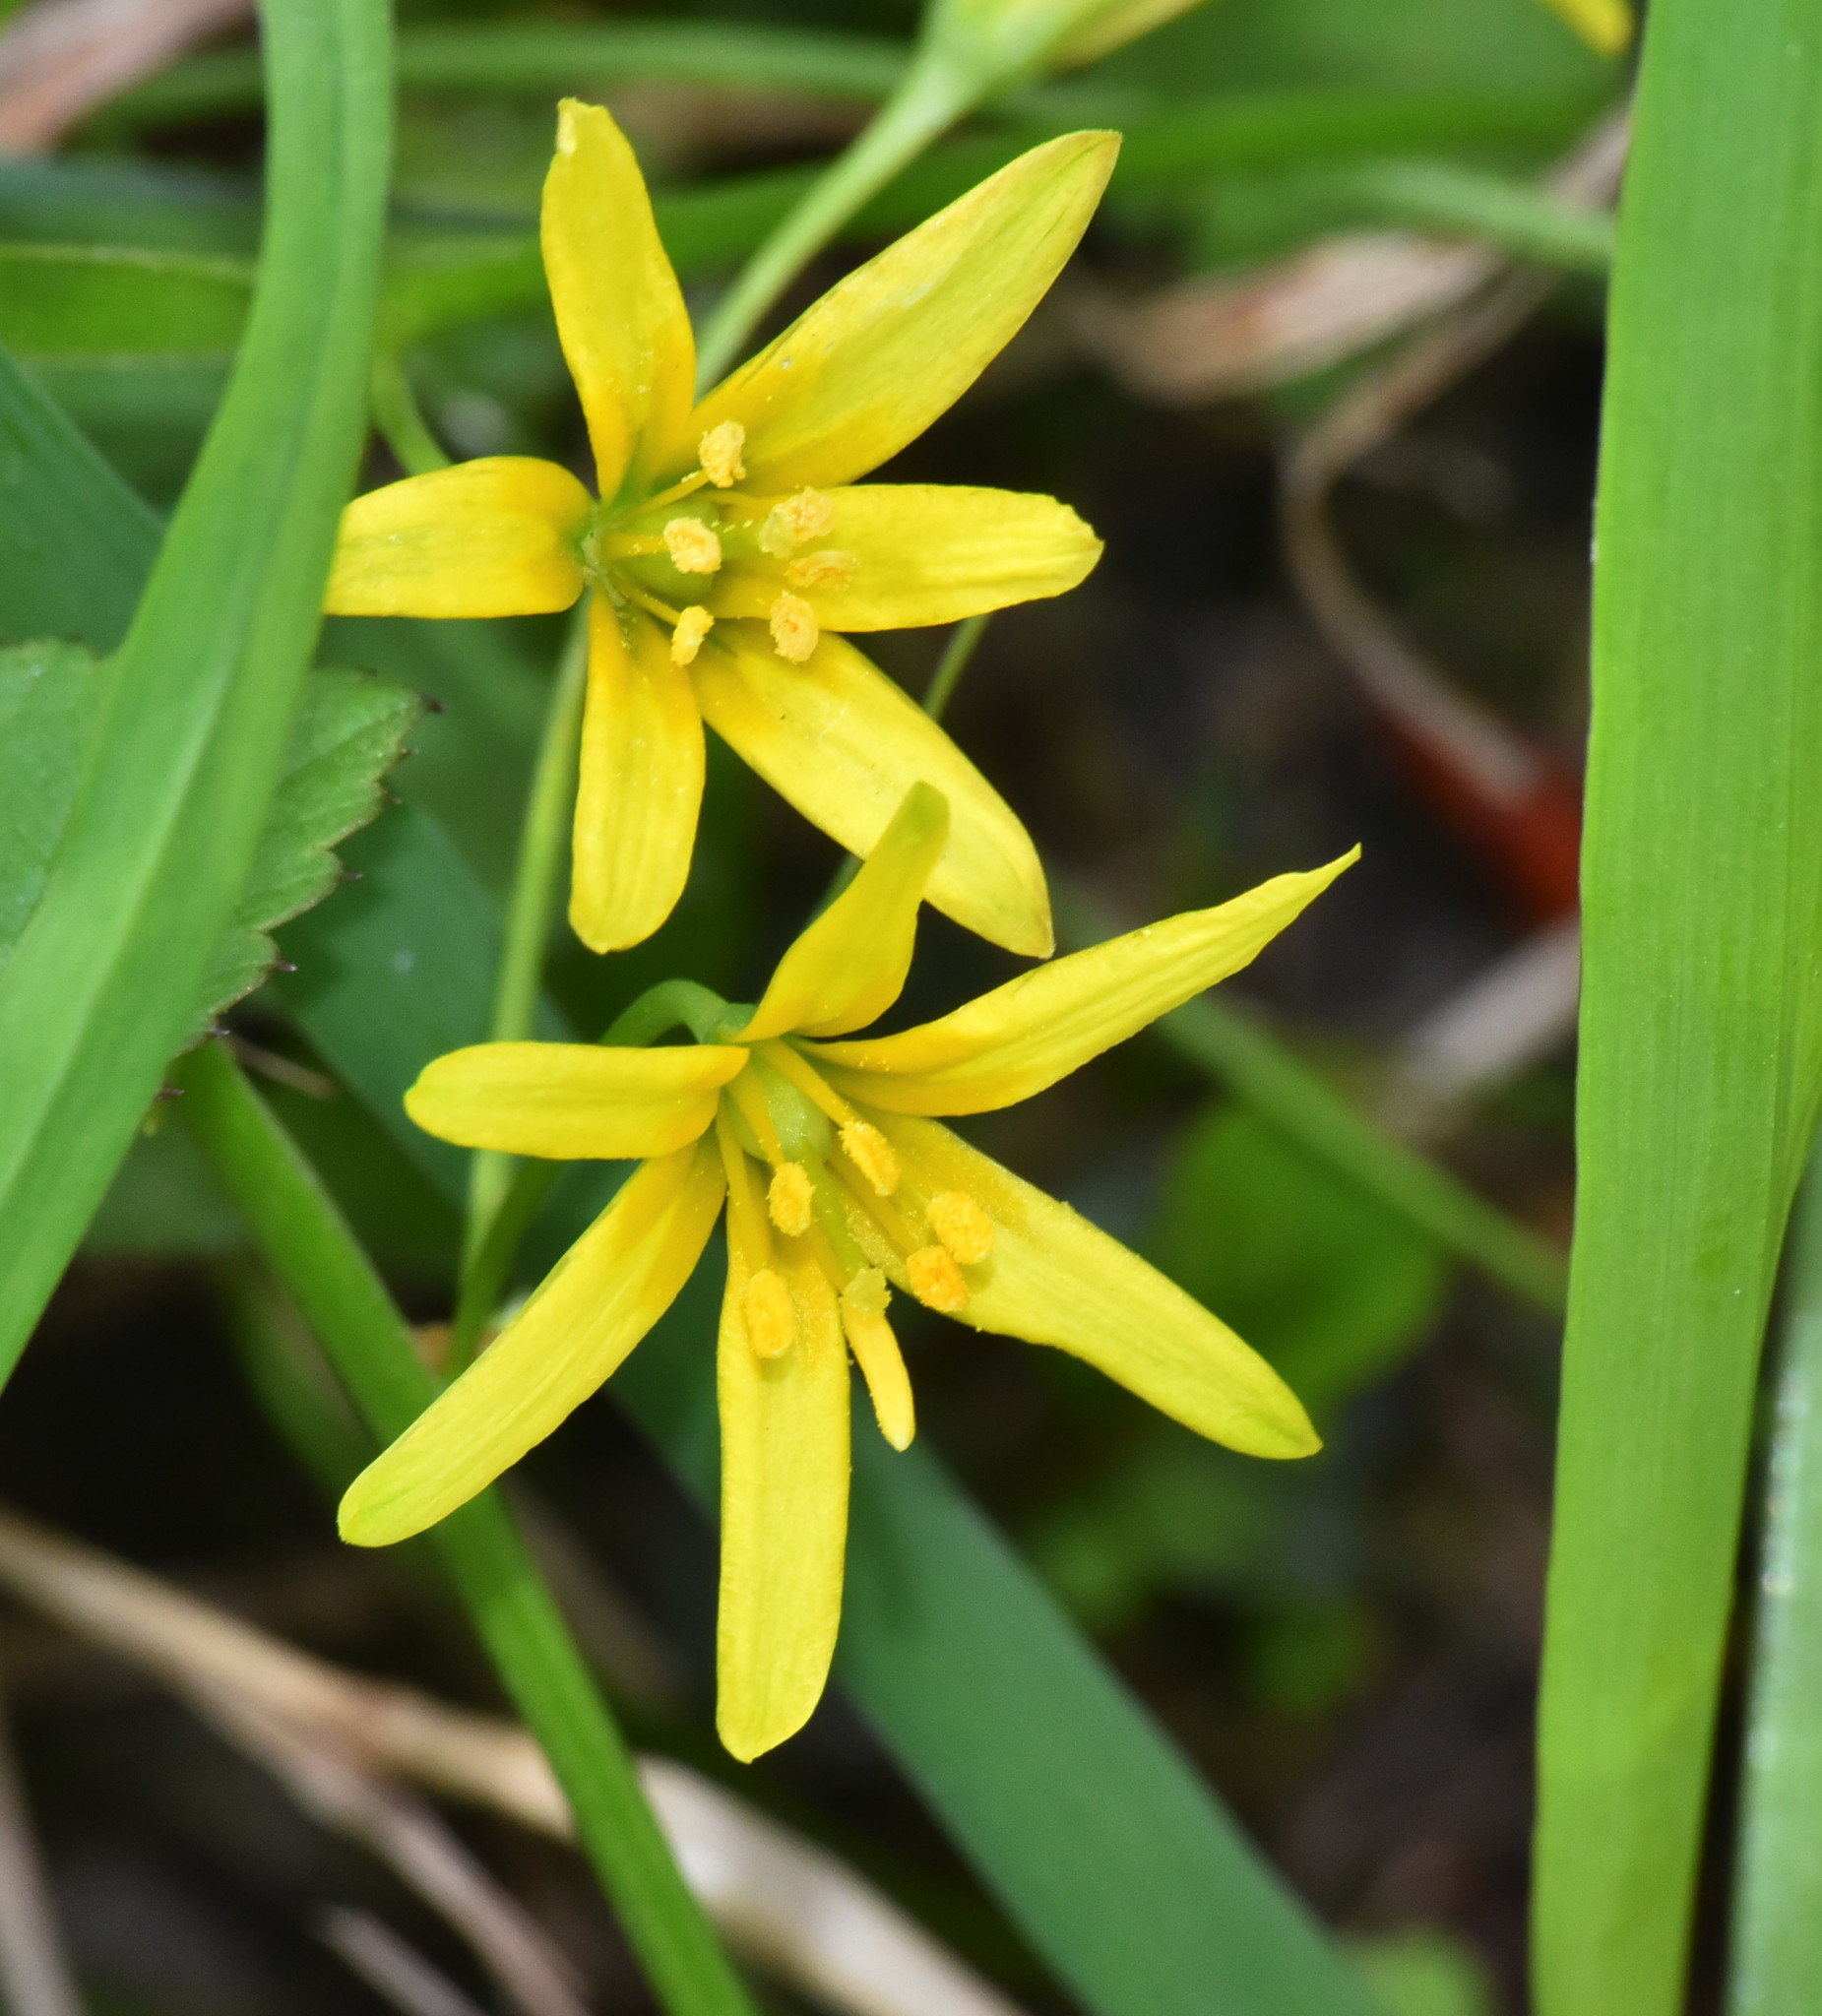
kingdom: Plantae
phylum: Tracheophyta
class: Liliopsida
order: Liliales
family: Liliaceae
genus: Gagea
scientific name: Gagea lutea
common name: Yellow star-of-bethlehem
